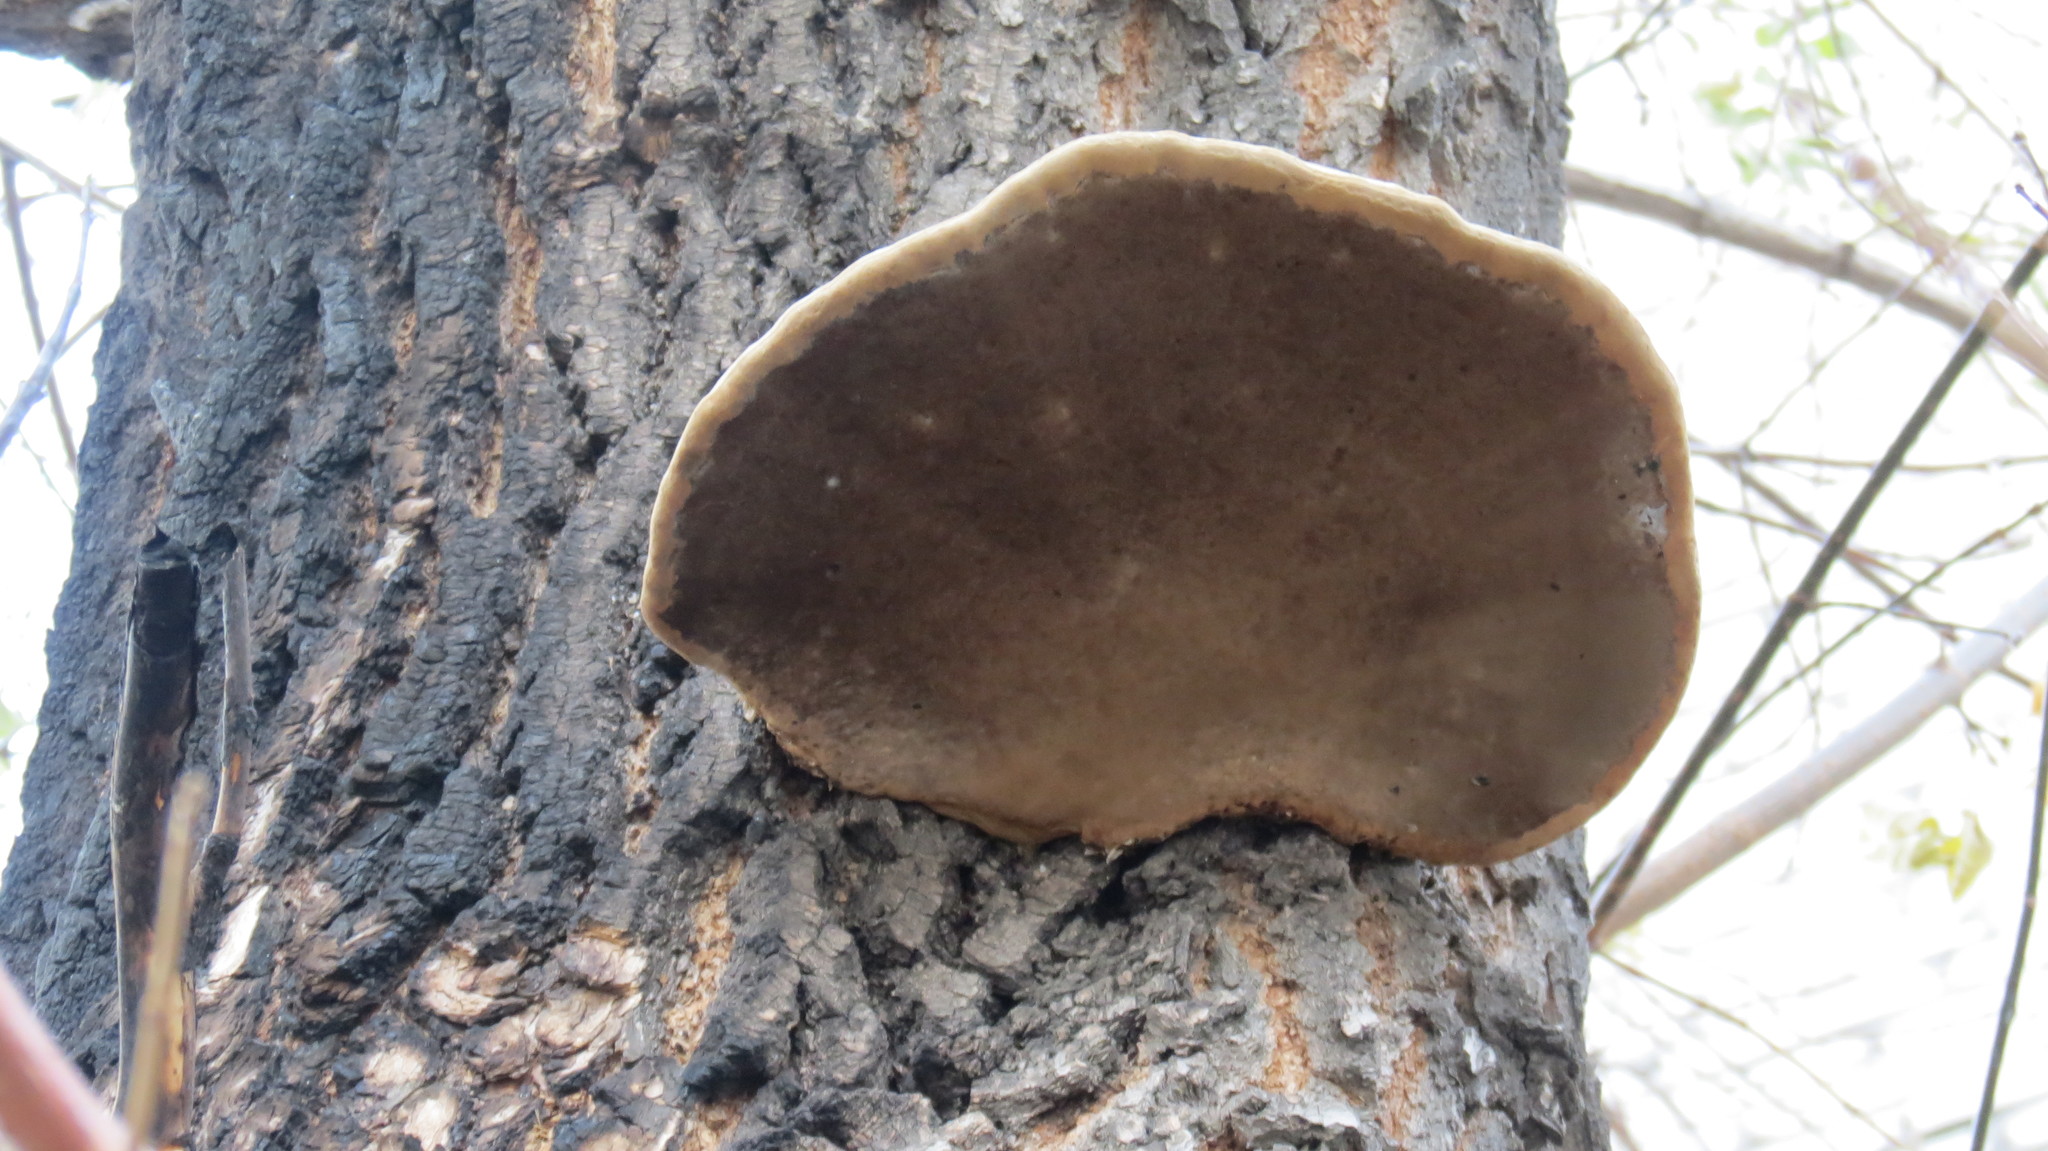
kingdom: Fungi
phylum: Basidiomycota
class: Agaricomycetes
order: Polyporales
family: Polyporaceae
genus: Fomes
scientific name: Fomes fomentarius
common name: Hoof fungus
